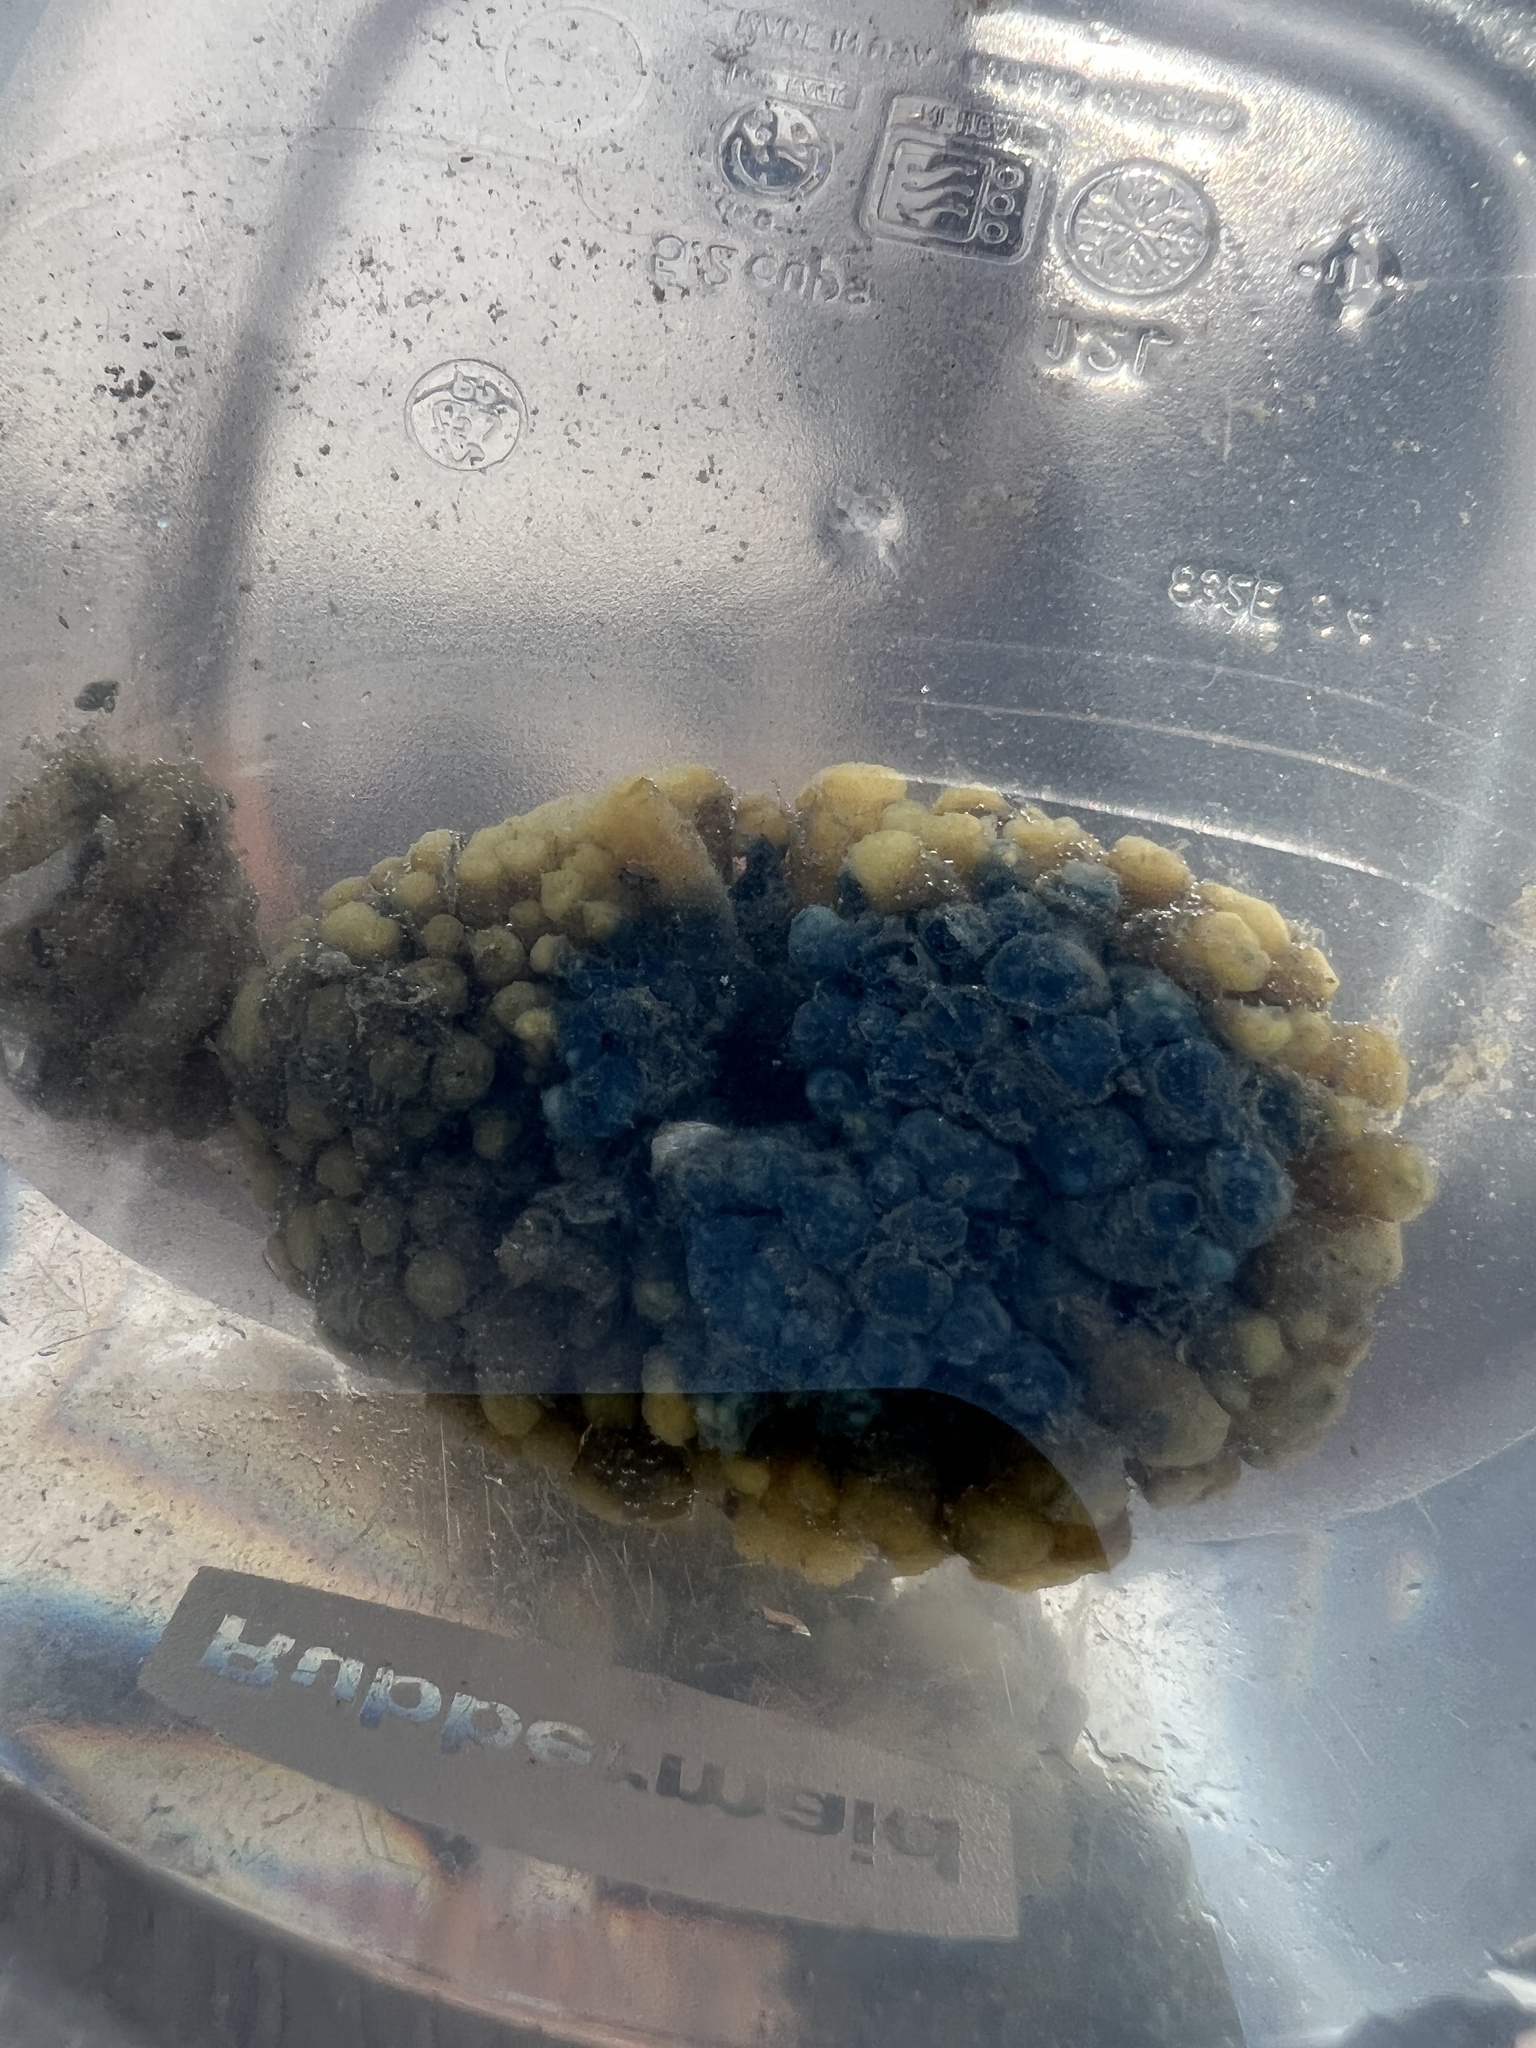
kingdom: Animalia
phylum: Porifera
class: Demospongiae
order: Suberitida
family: Halichondriidae
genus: Hymeniacidon
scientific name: Hymeniacidon caerulea
